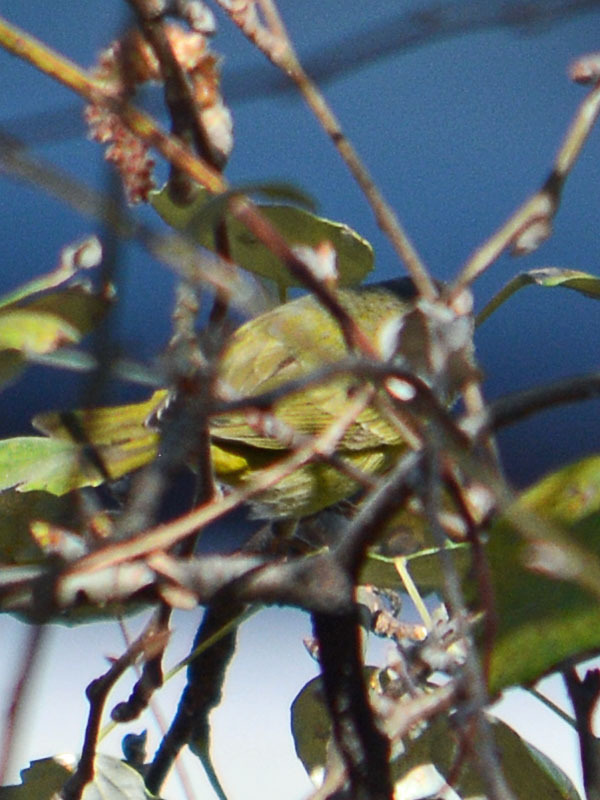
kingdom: Animalia
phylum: Chordata
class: Aves
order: Passeriformes
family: Parulidae
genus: Leiothlypis
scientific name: Leiothlypis celata
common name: Orange-crowned warbler
